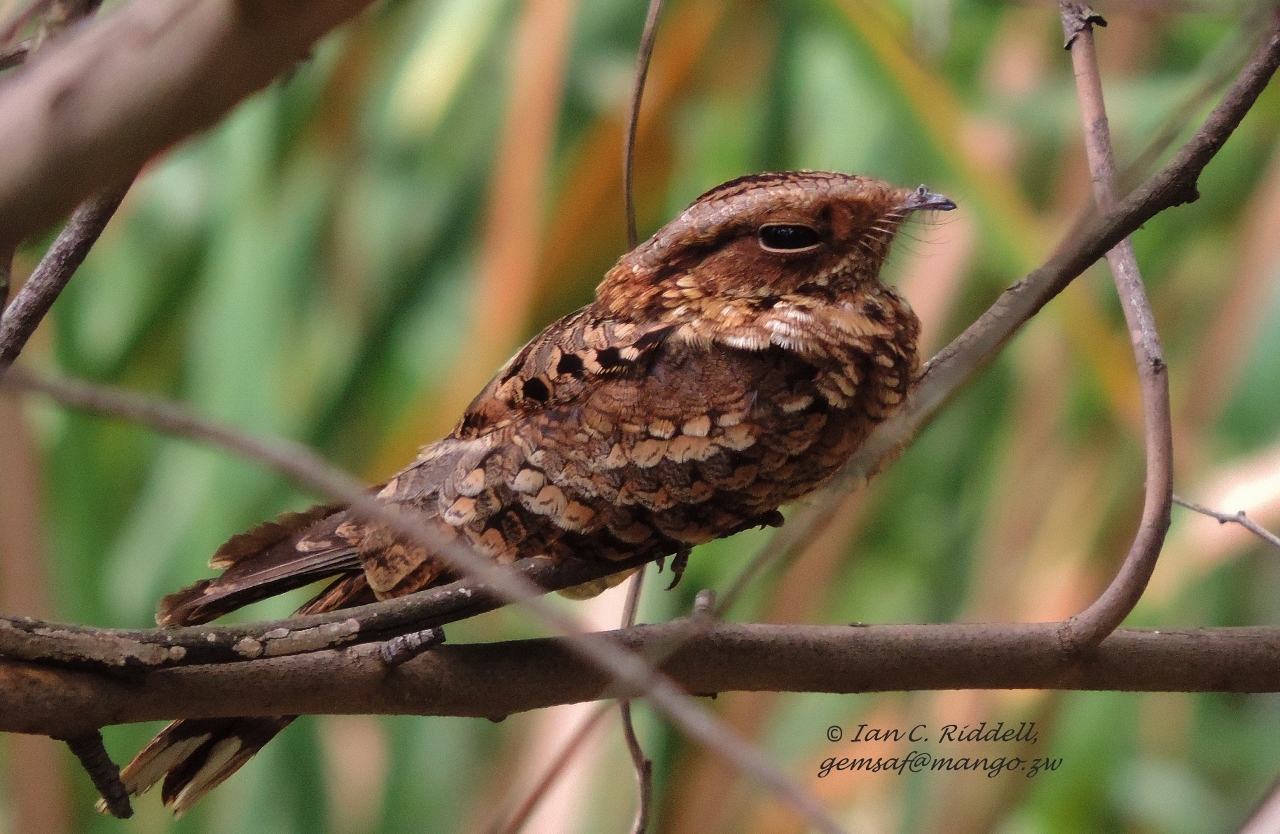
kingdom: Animalia
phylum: Chordata
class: Aves
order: Caprimulgiformes
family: Caprimulgidae
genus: Caprimulgus
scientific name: Caprimulgus pectoralis
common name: Fiery-necked nightjar
